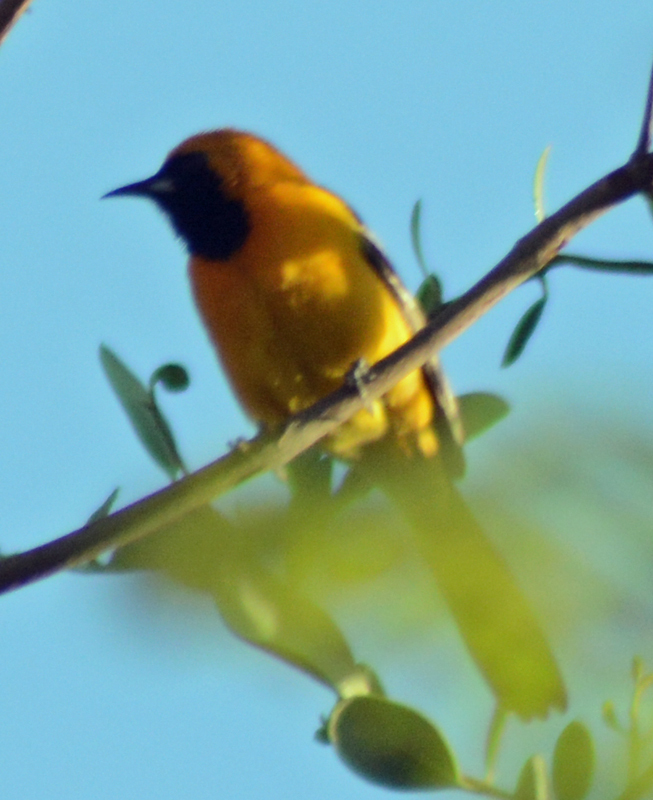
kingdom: Animalia
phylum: Chordata
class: Aves
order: Passeriformes
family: Icteridae
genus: Icterus
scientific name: Icterus cucullatus
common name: Hooded oriole
